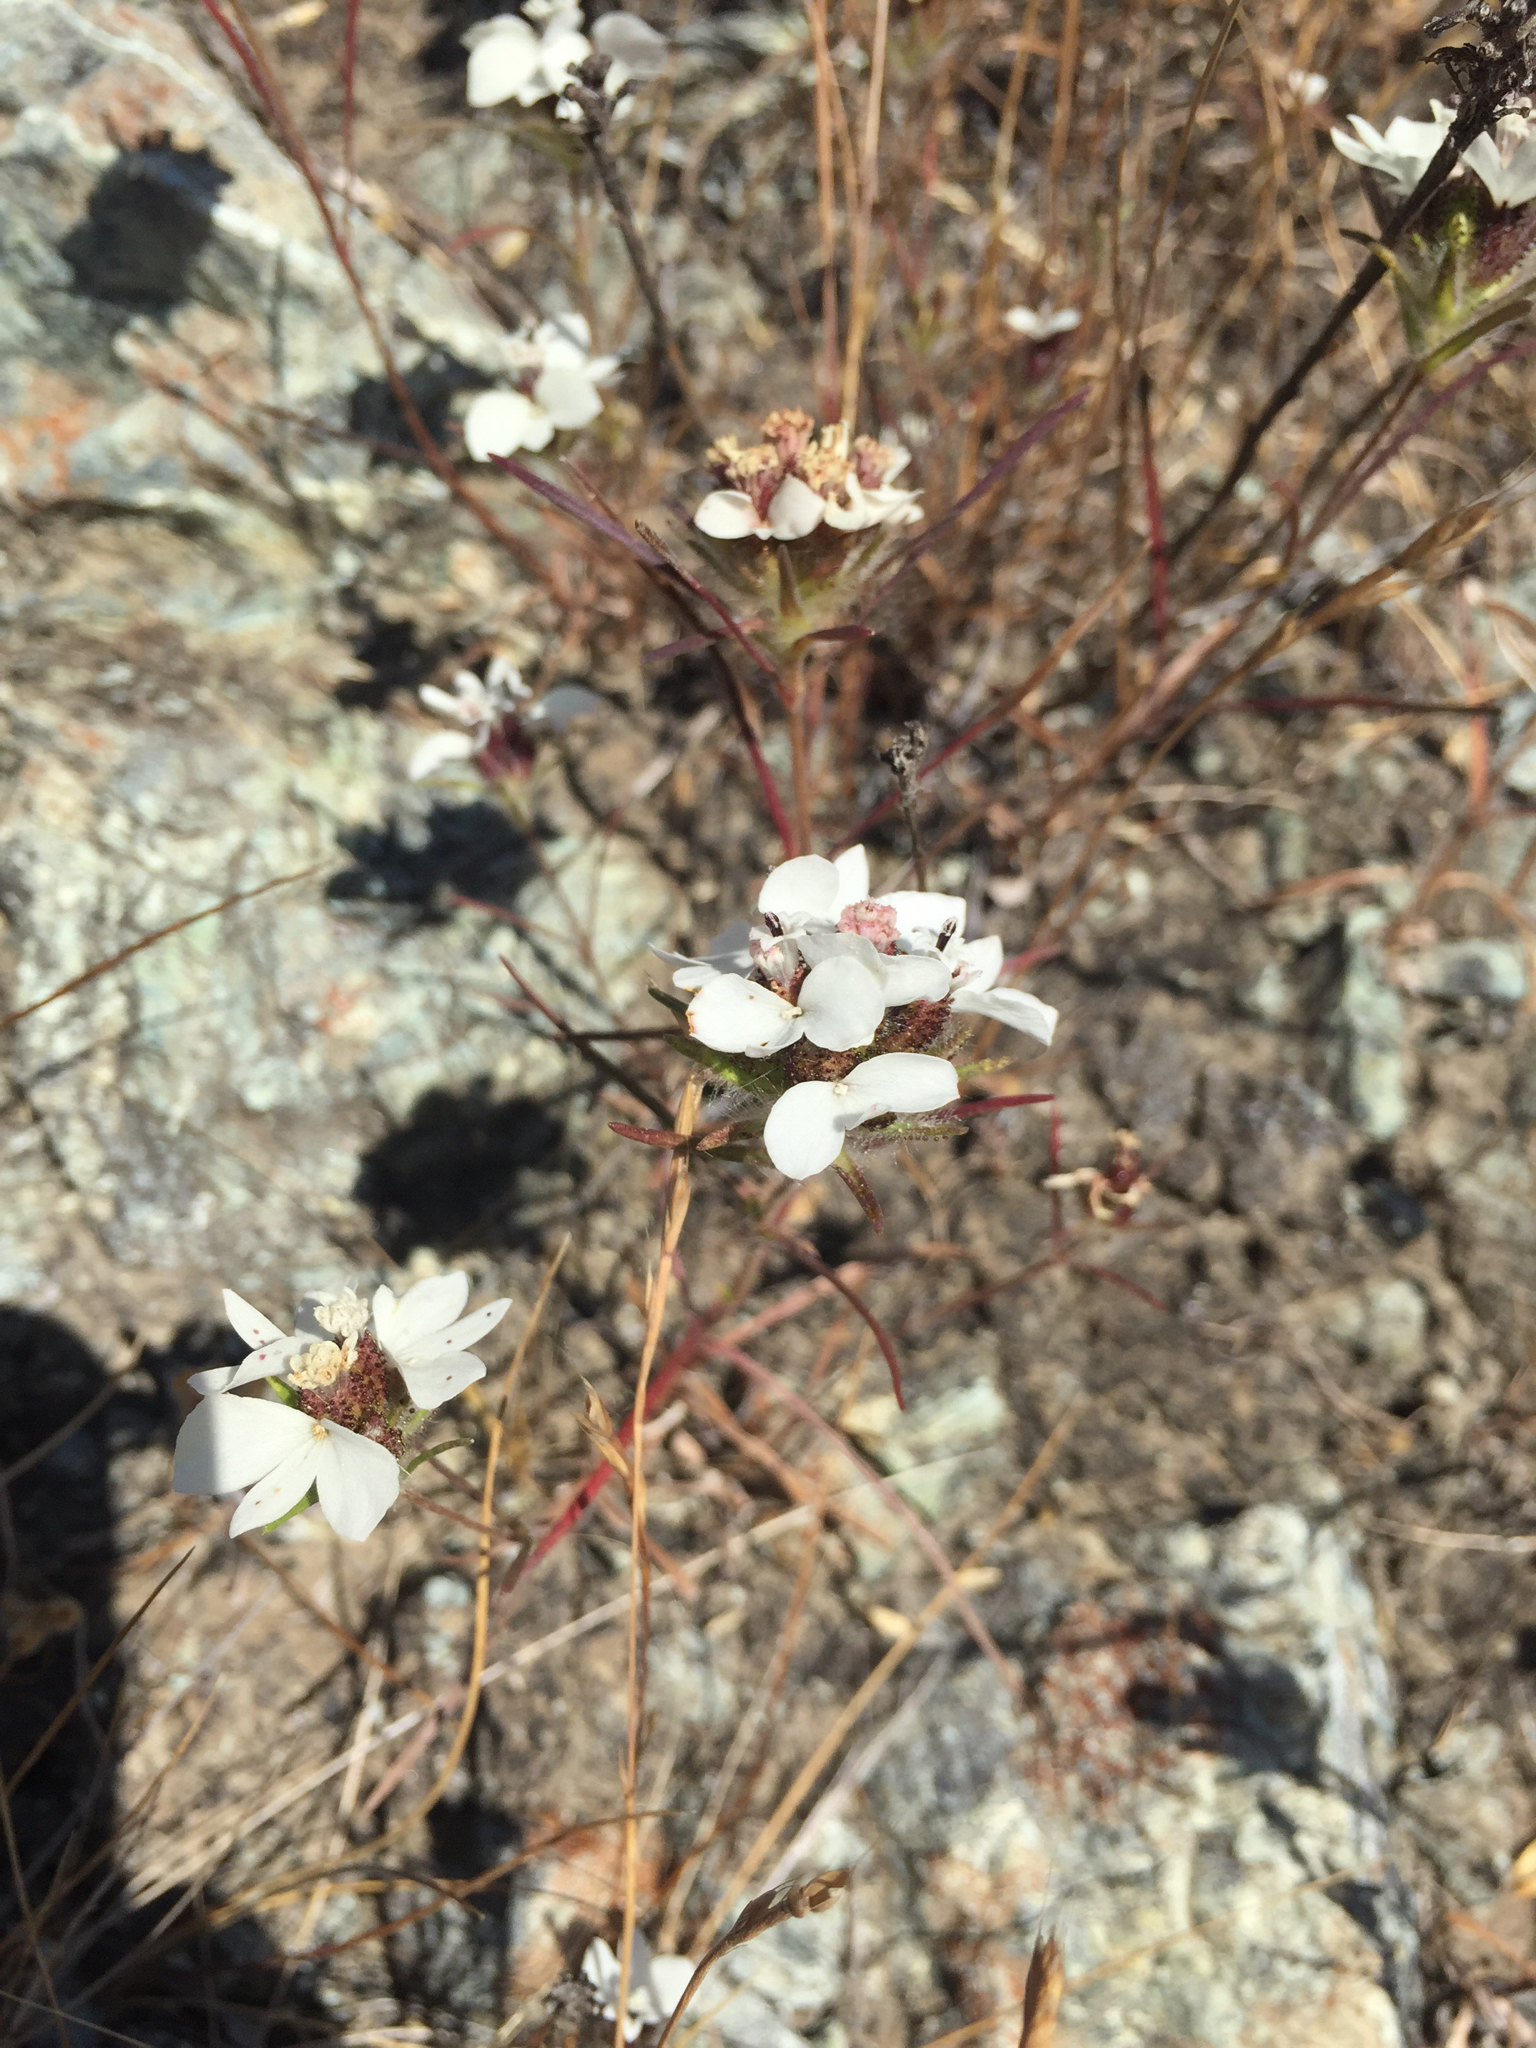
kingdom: Plantae
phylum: Tracheophyta
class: Magnoliopsida
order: Asterales
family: Asteraceae
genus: Calycadenia
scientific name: Calycadenia multiglandulosa
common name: Sticky calycadenia
